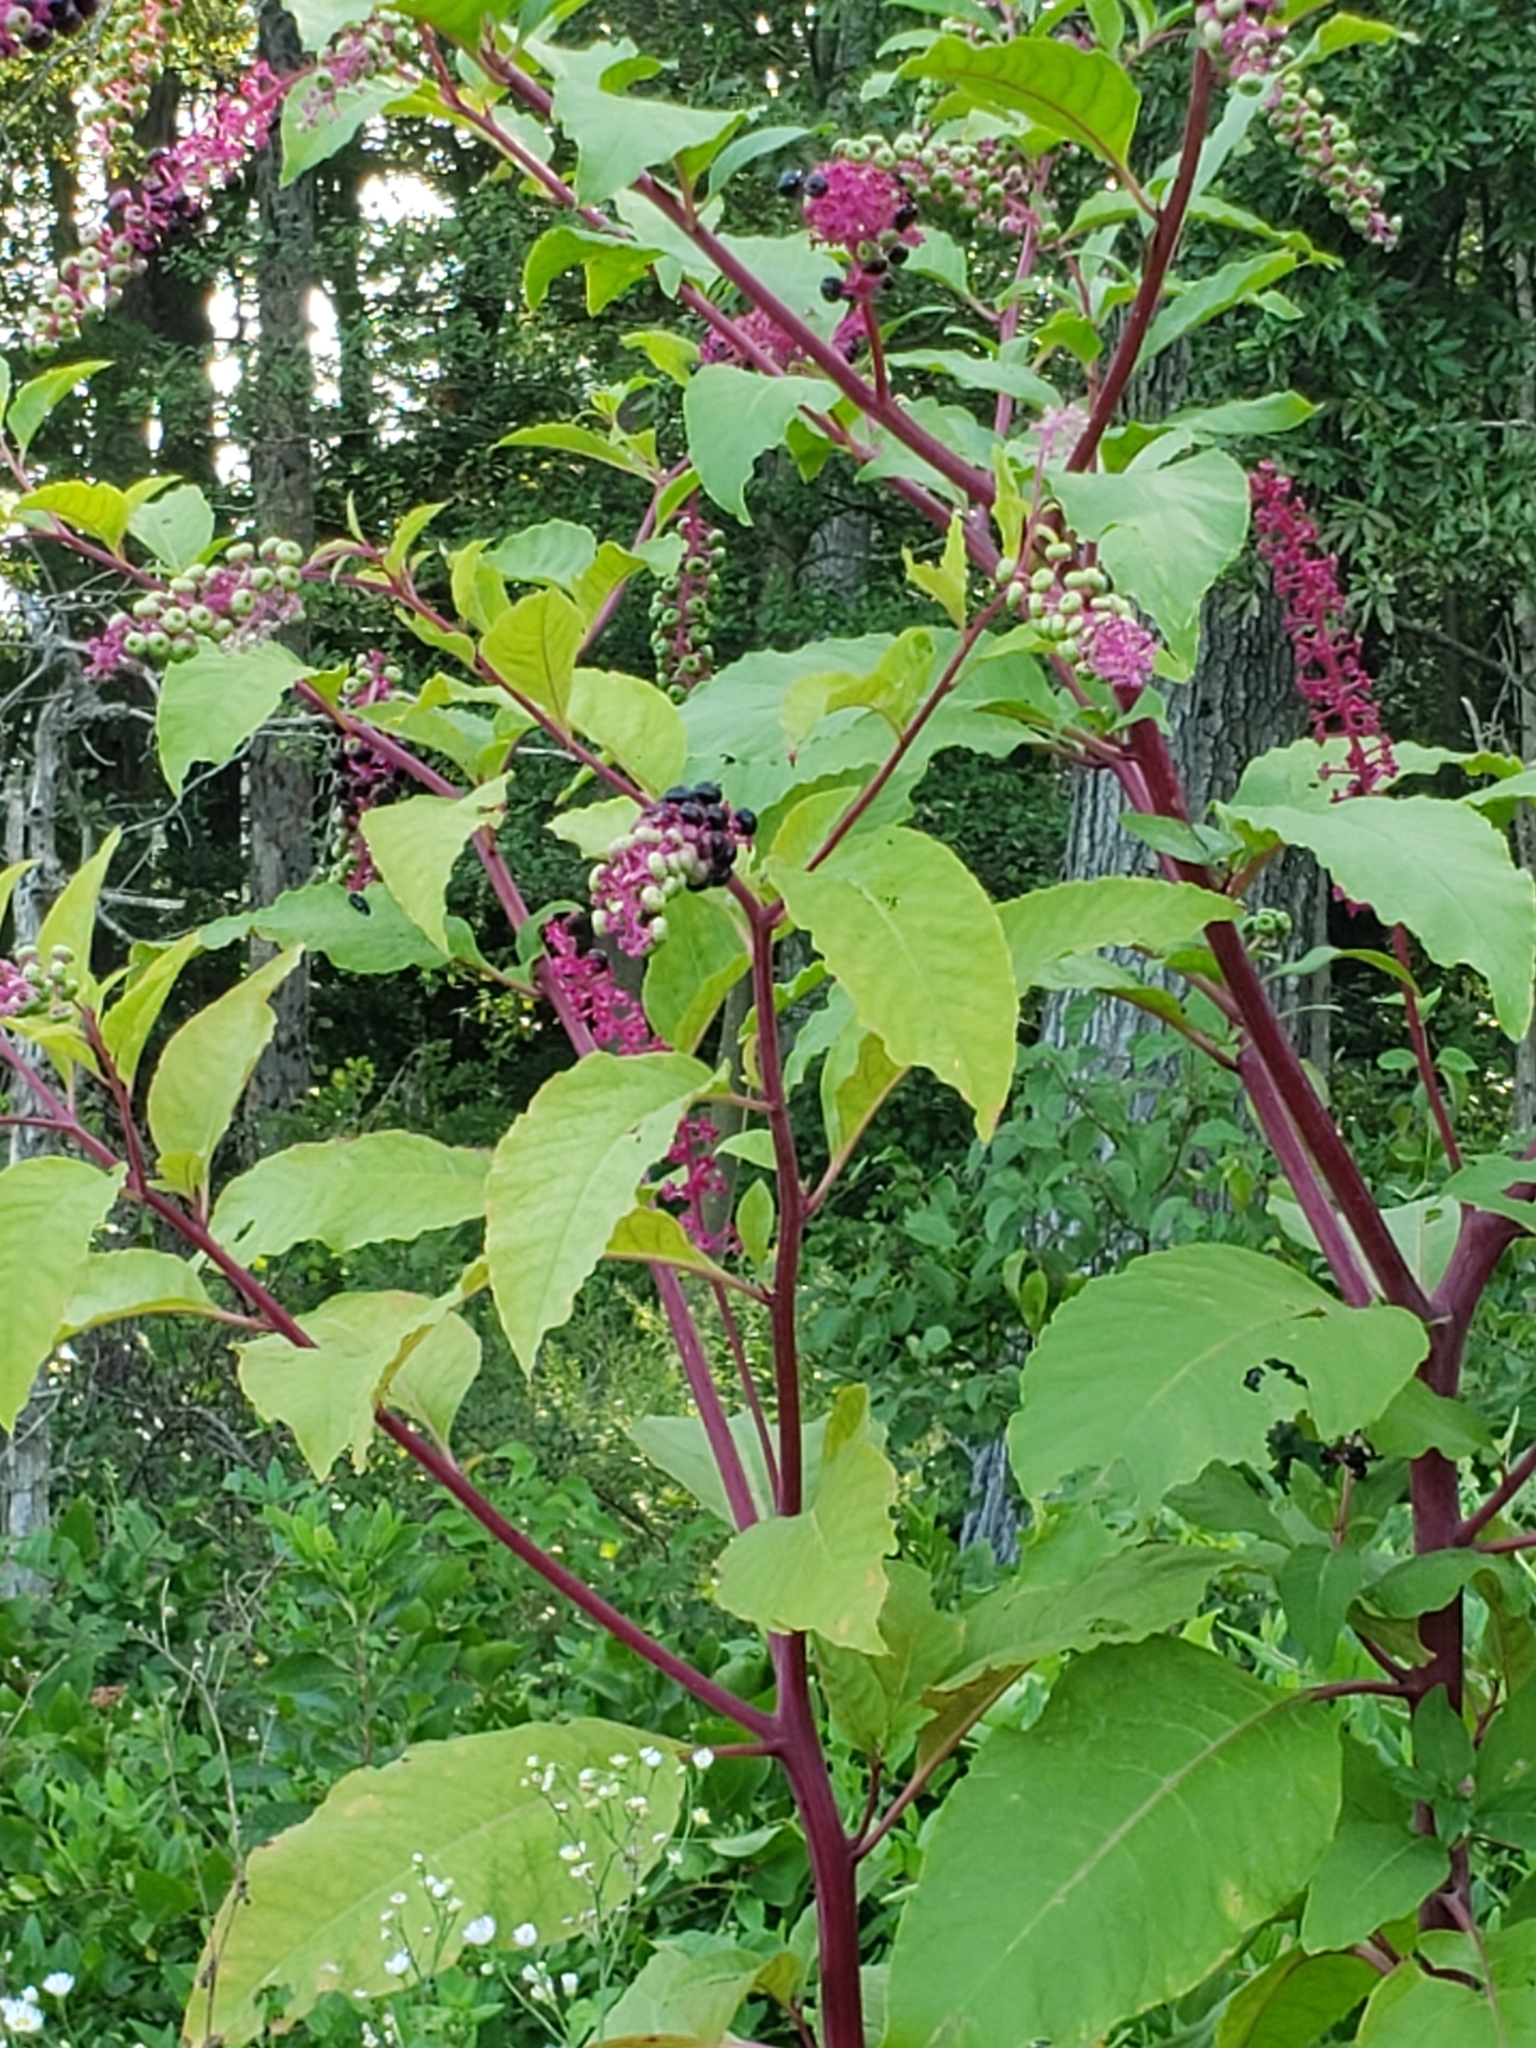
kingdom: Plantae
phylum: Tracheophyta
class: Magnoliopsida
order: Caryophyllales
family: Phytolaccaceae
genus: Phytolacca
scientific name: Phytolacca americana
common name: American pokeweed
